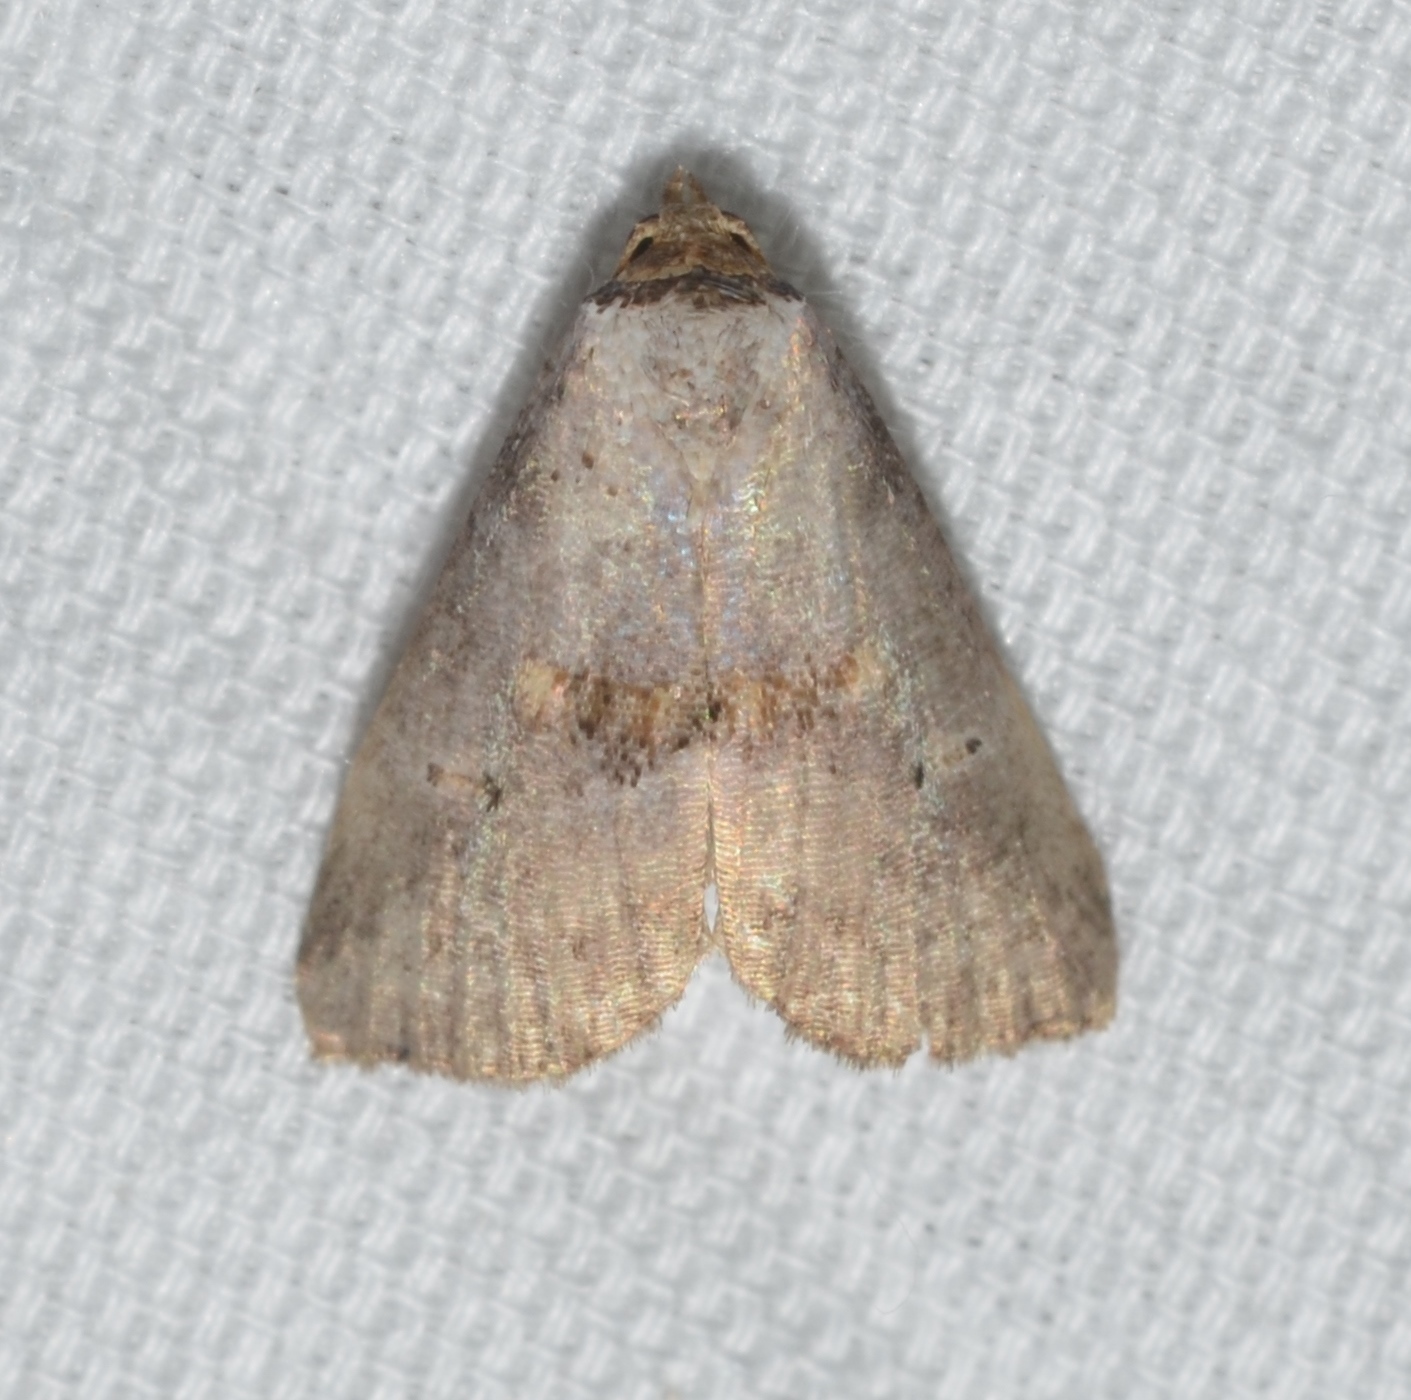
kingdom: Animalia
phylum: Arthropoda
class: Insecta
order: Lepidoptera
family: Erebidae
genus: Hyperstrotia
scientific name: Hyperstrotia flaviguttata
